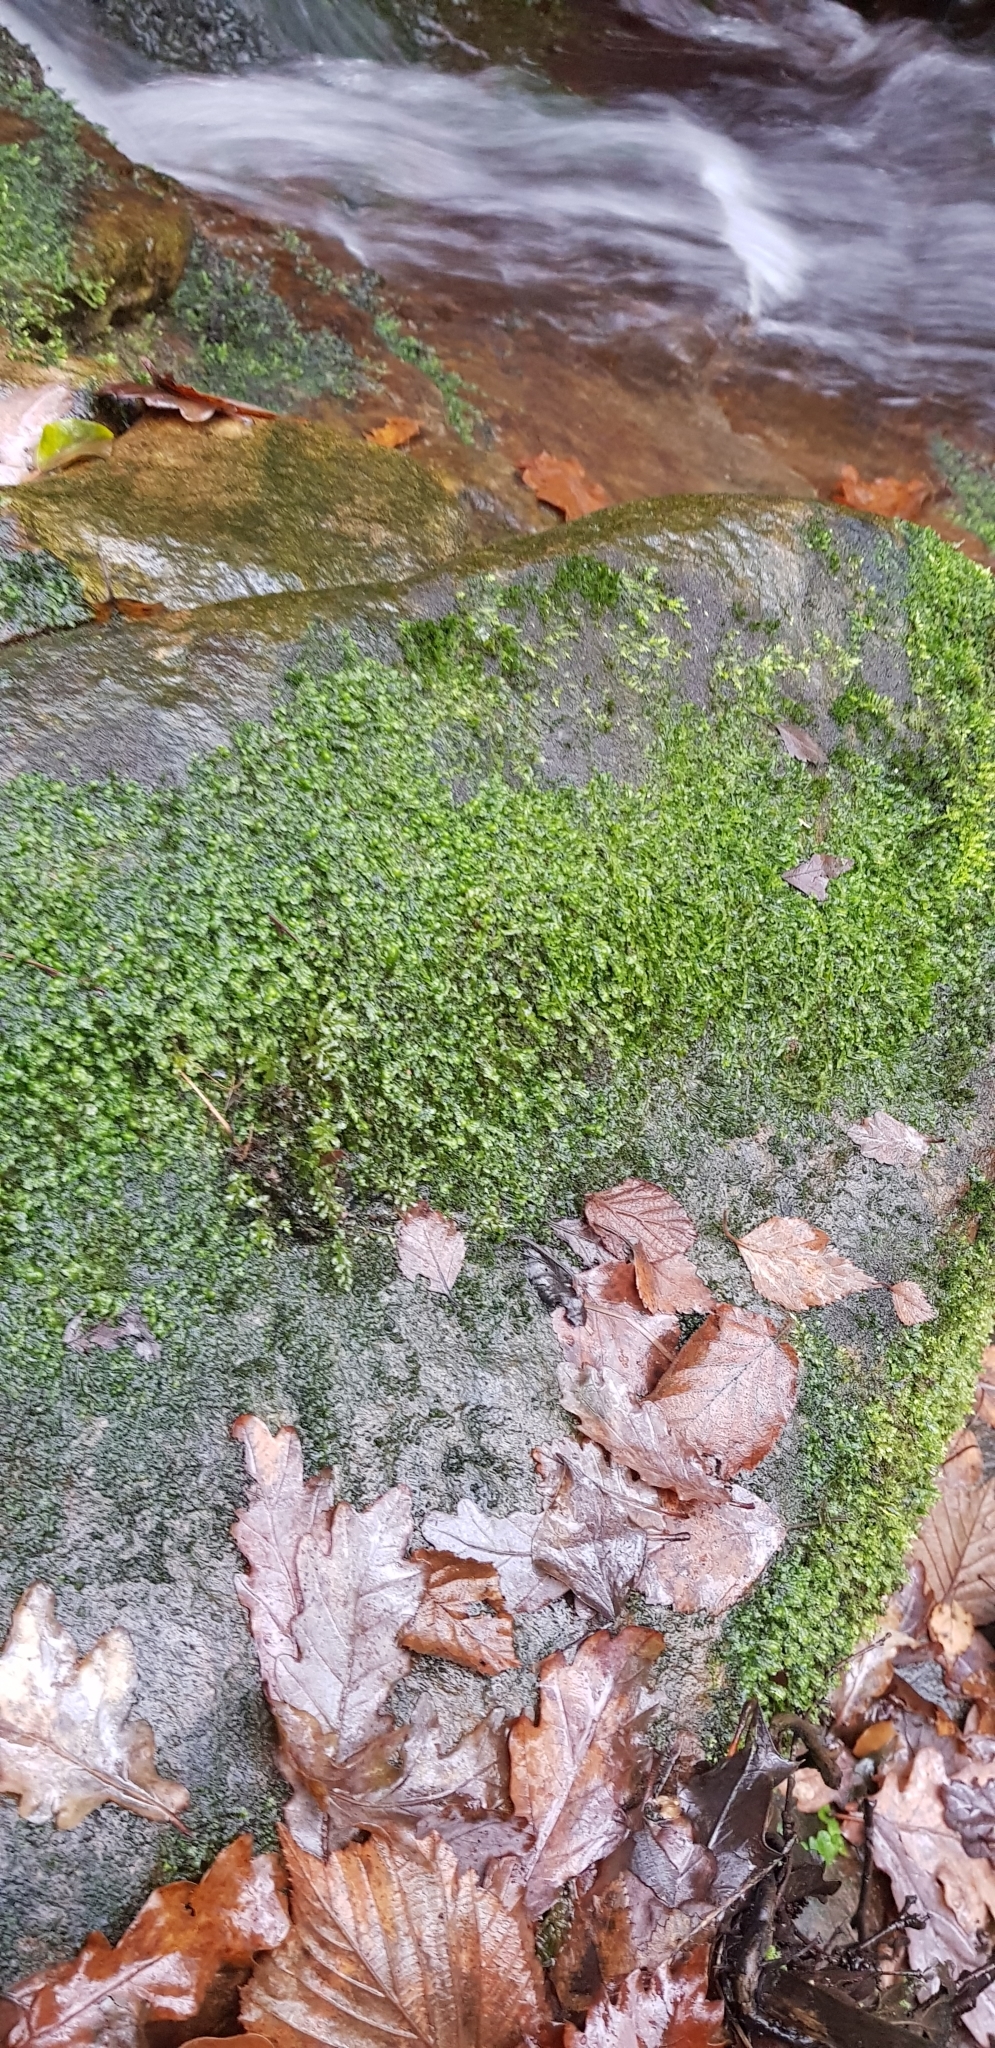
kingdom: Plantae
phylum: Marchantiophyta
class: Jungermanniopsida
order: Jungermanniales
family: Scapaniaceae
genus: Scapania
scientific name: Scapania undulata
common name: Water earwort
